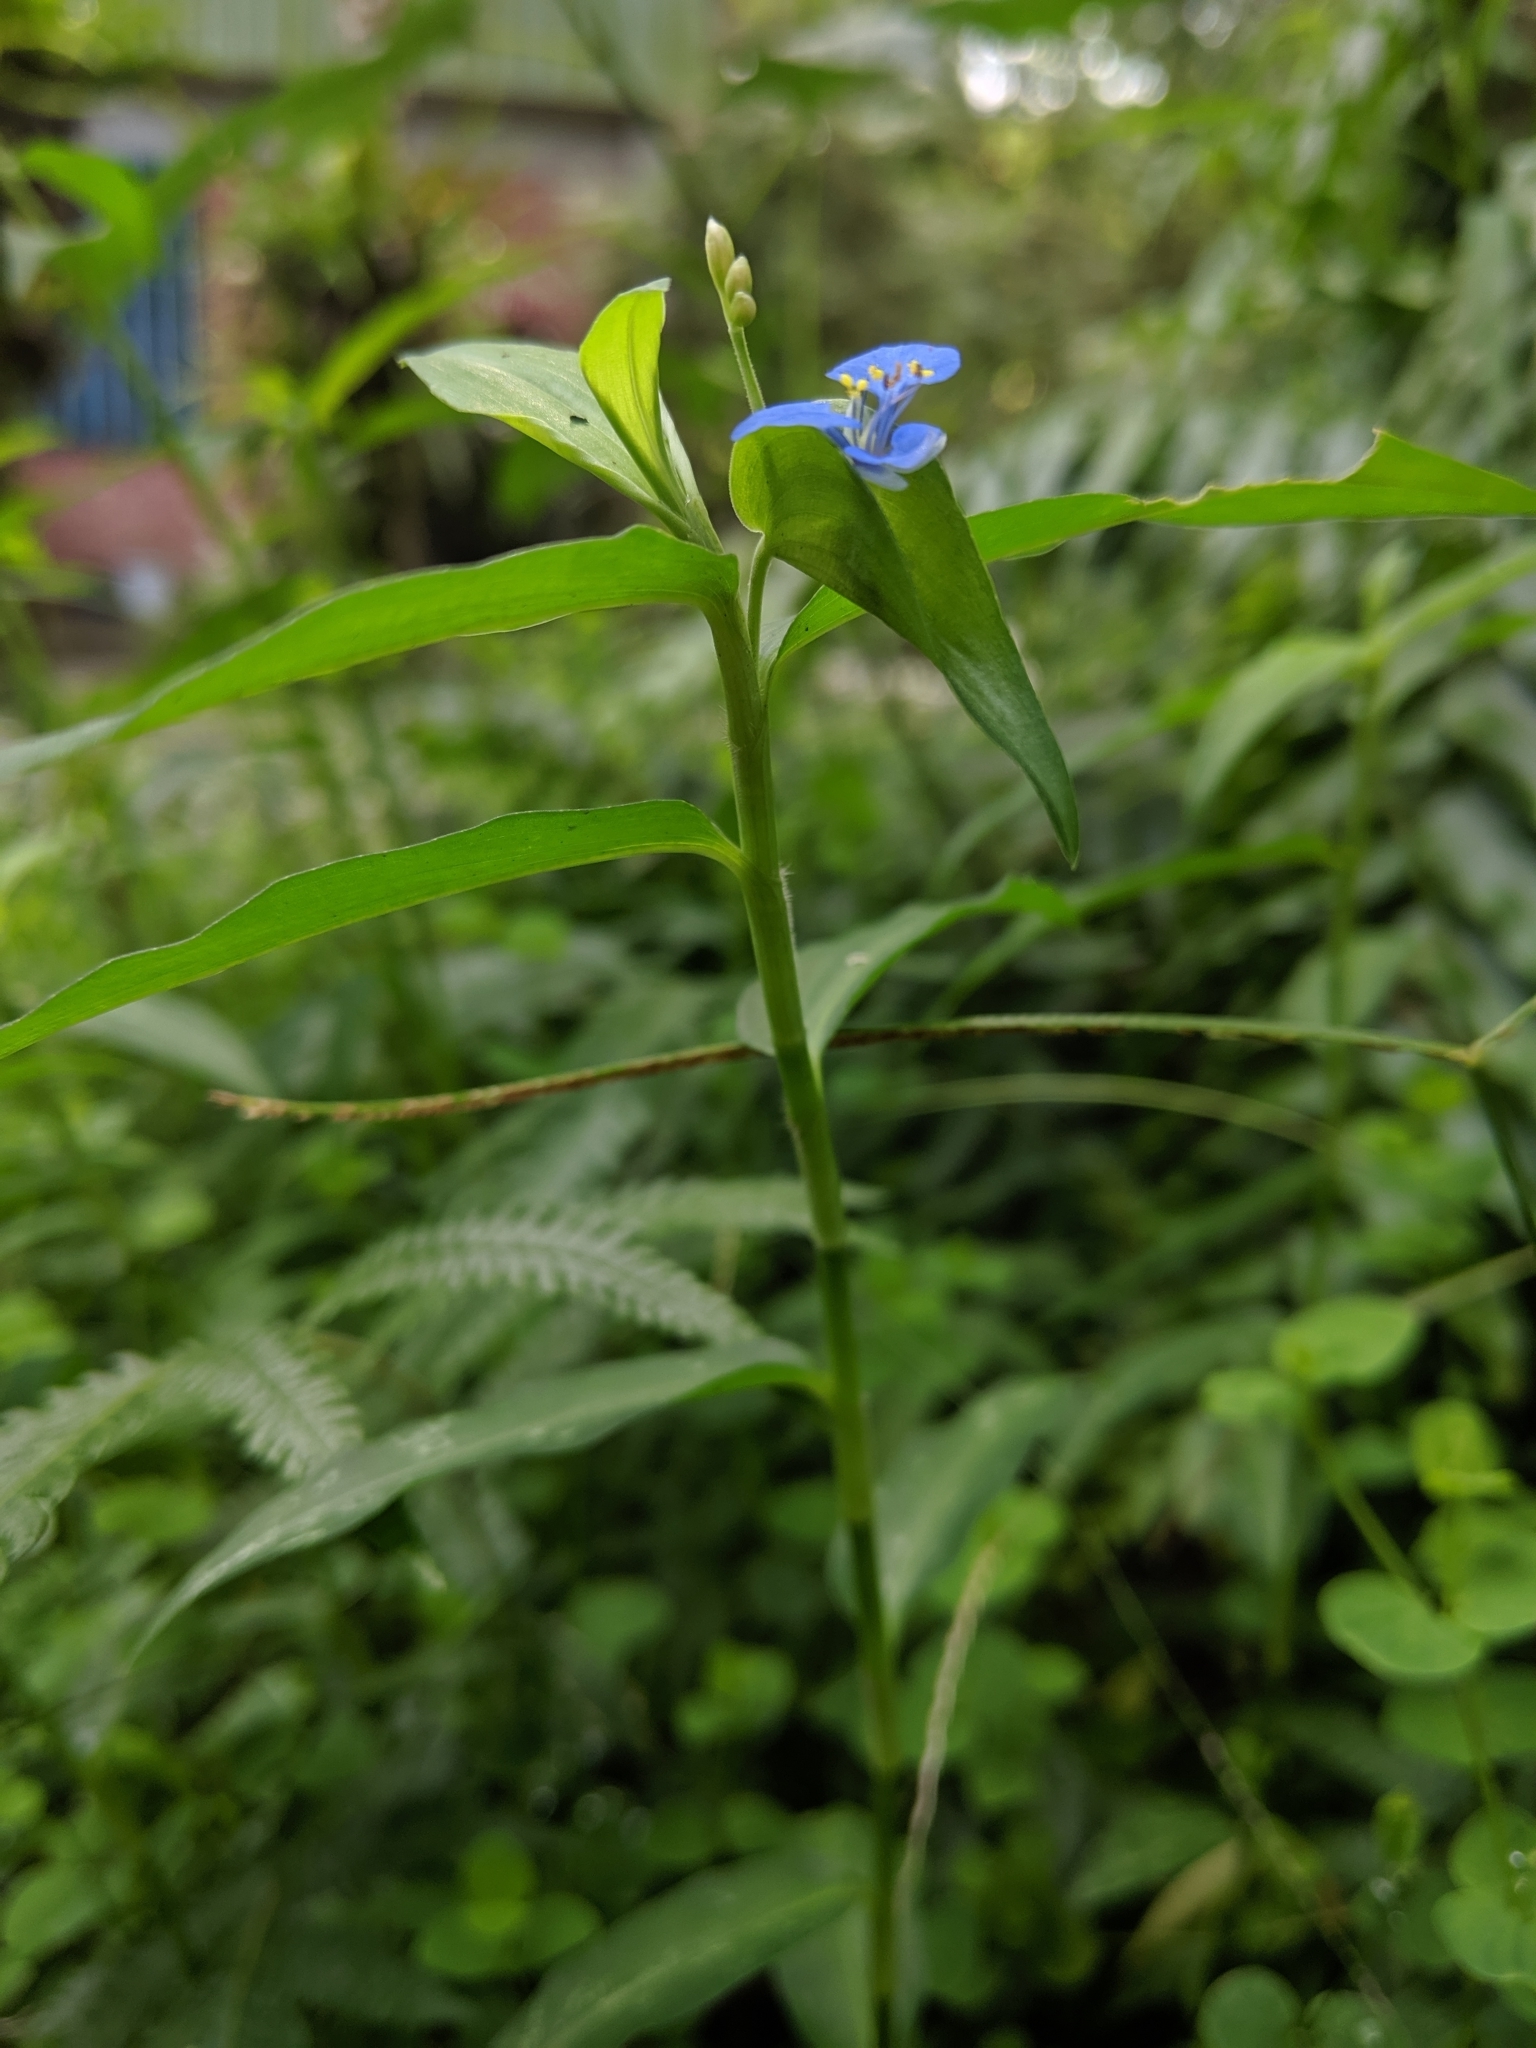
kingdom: Plantae
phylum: Tracheophyta
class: Liliopsida
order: Commelinales
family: Commelinaceae
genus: Commelina
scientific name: Commelina diffusa
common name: Climbing dayflower
